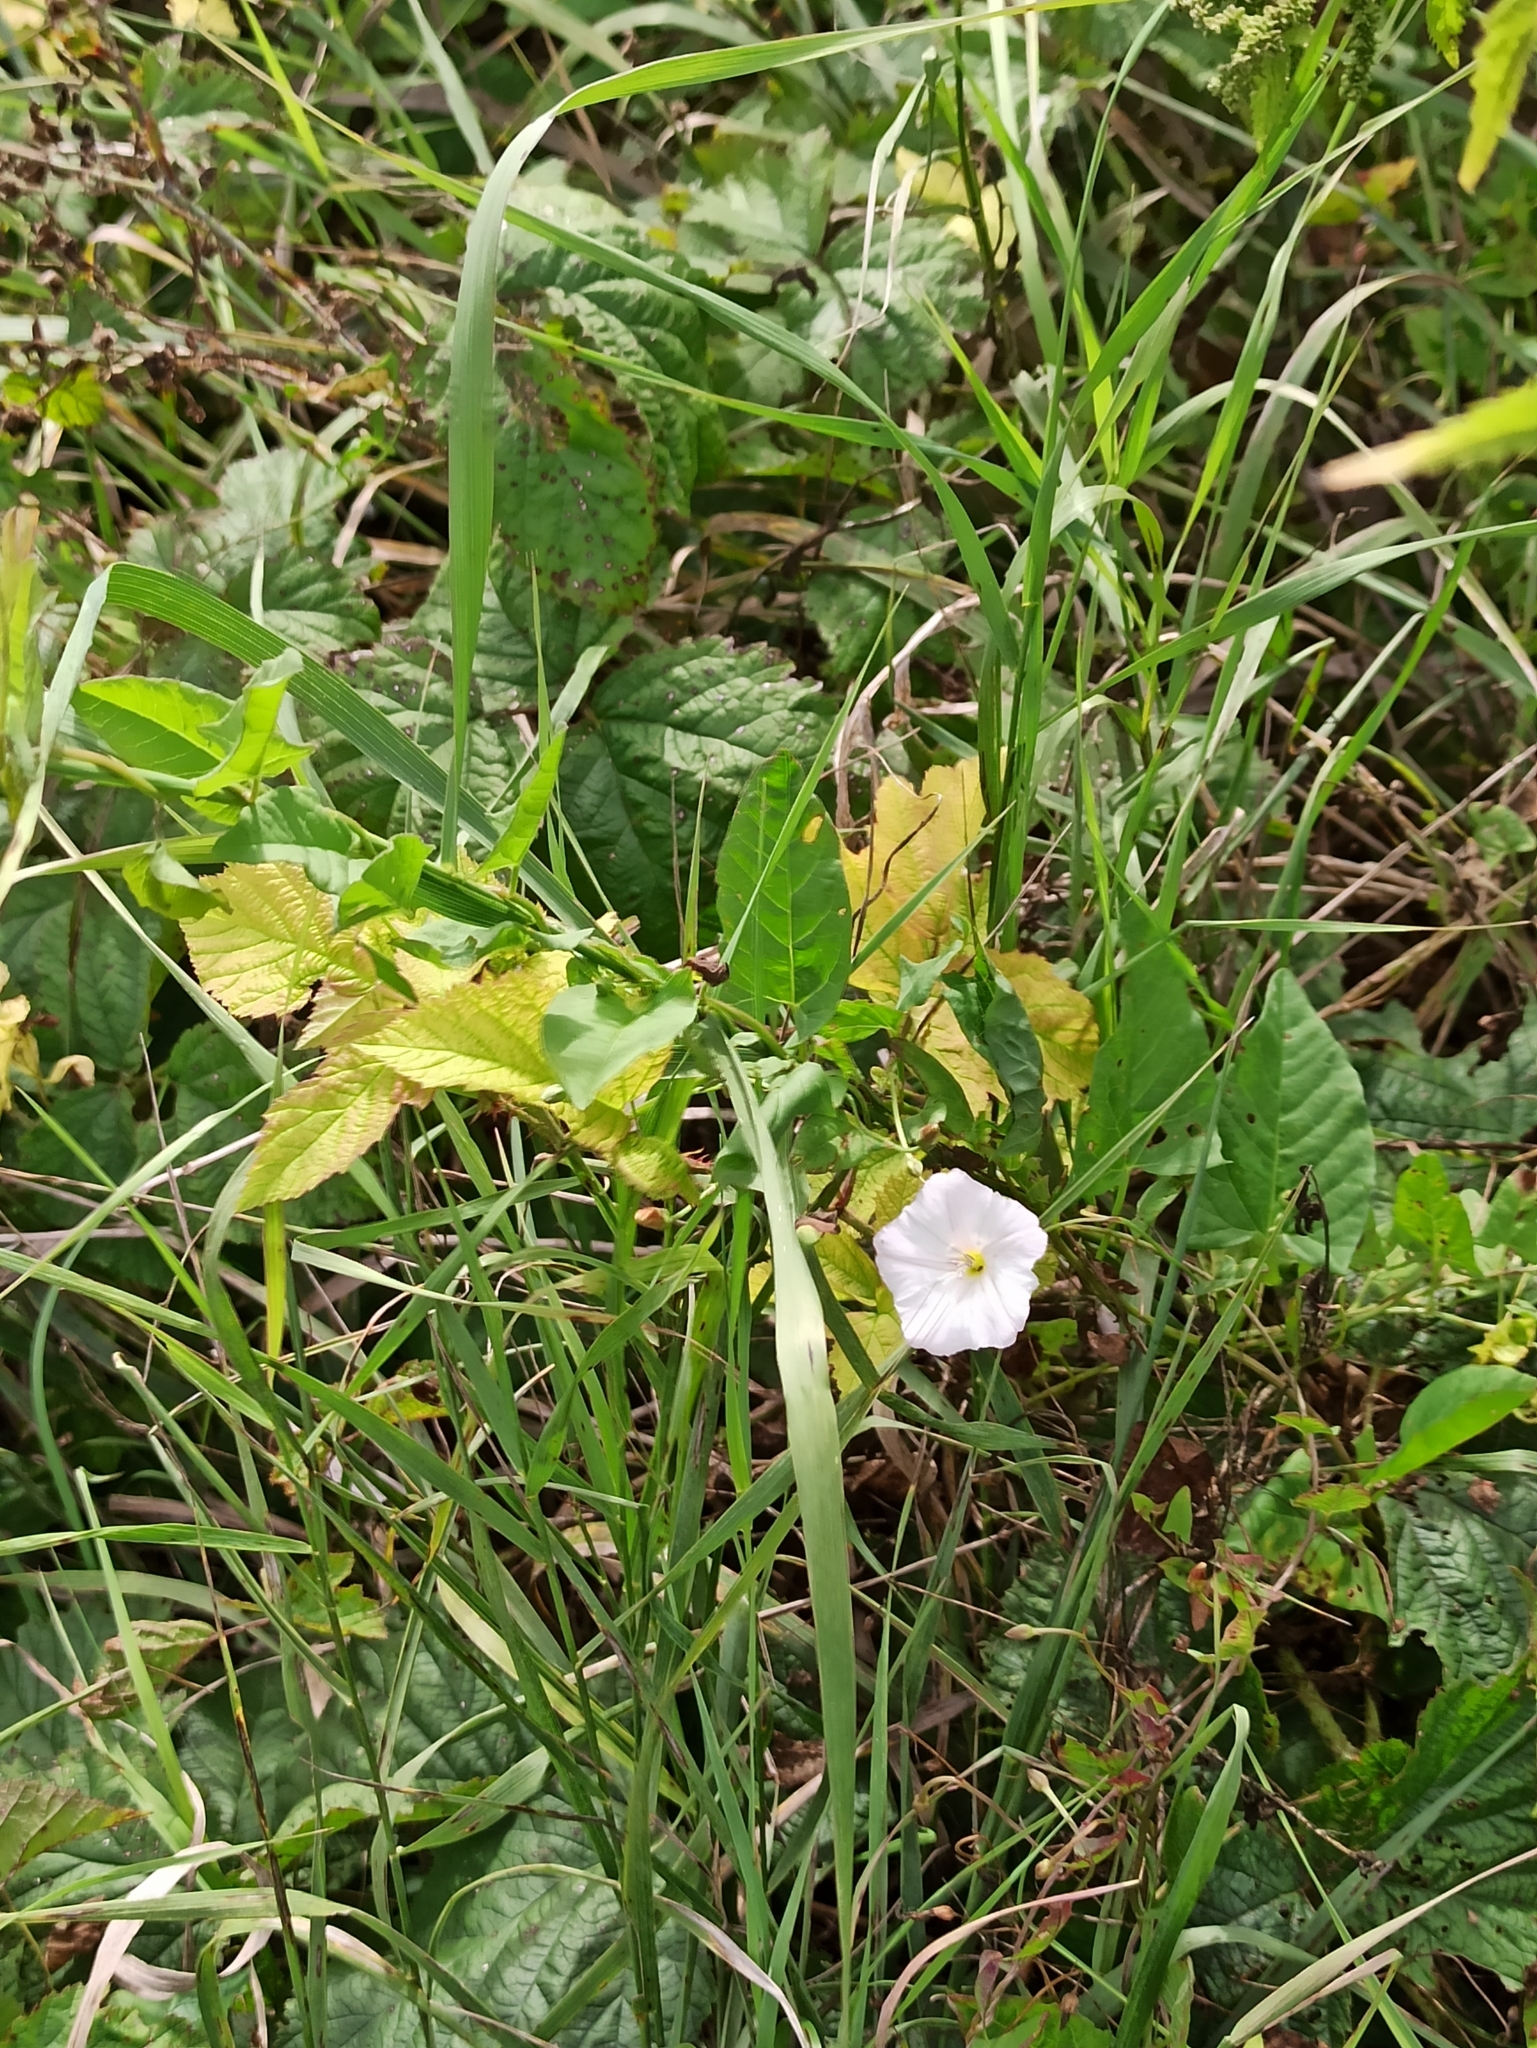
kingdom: Plantae
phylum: Tracheophyta
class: Magnoliopsida
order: Solanales
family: Convolvulaceae
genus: Convolvulus
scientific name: Convolvulus arvensis
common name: Field bindweed
